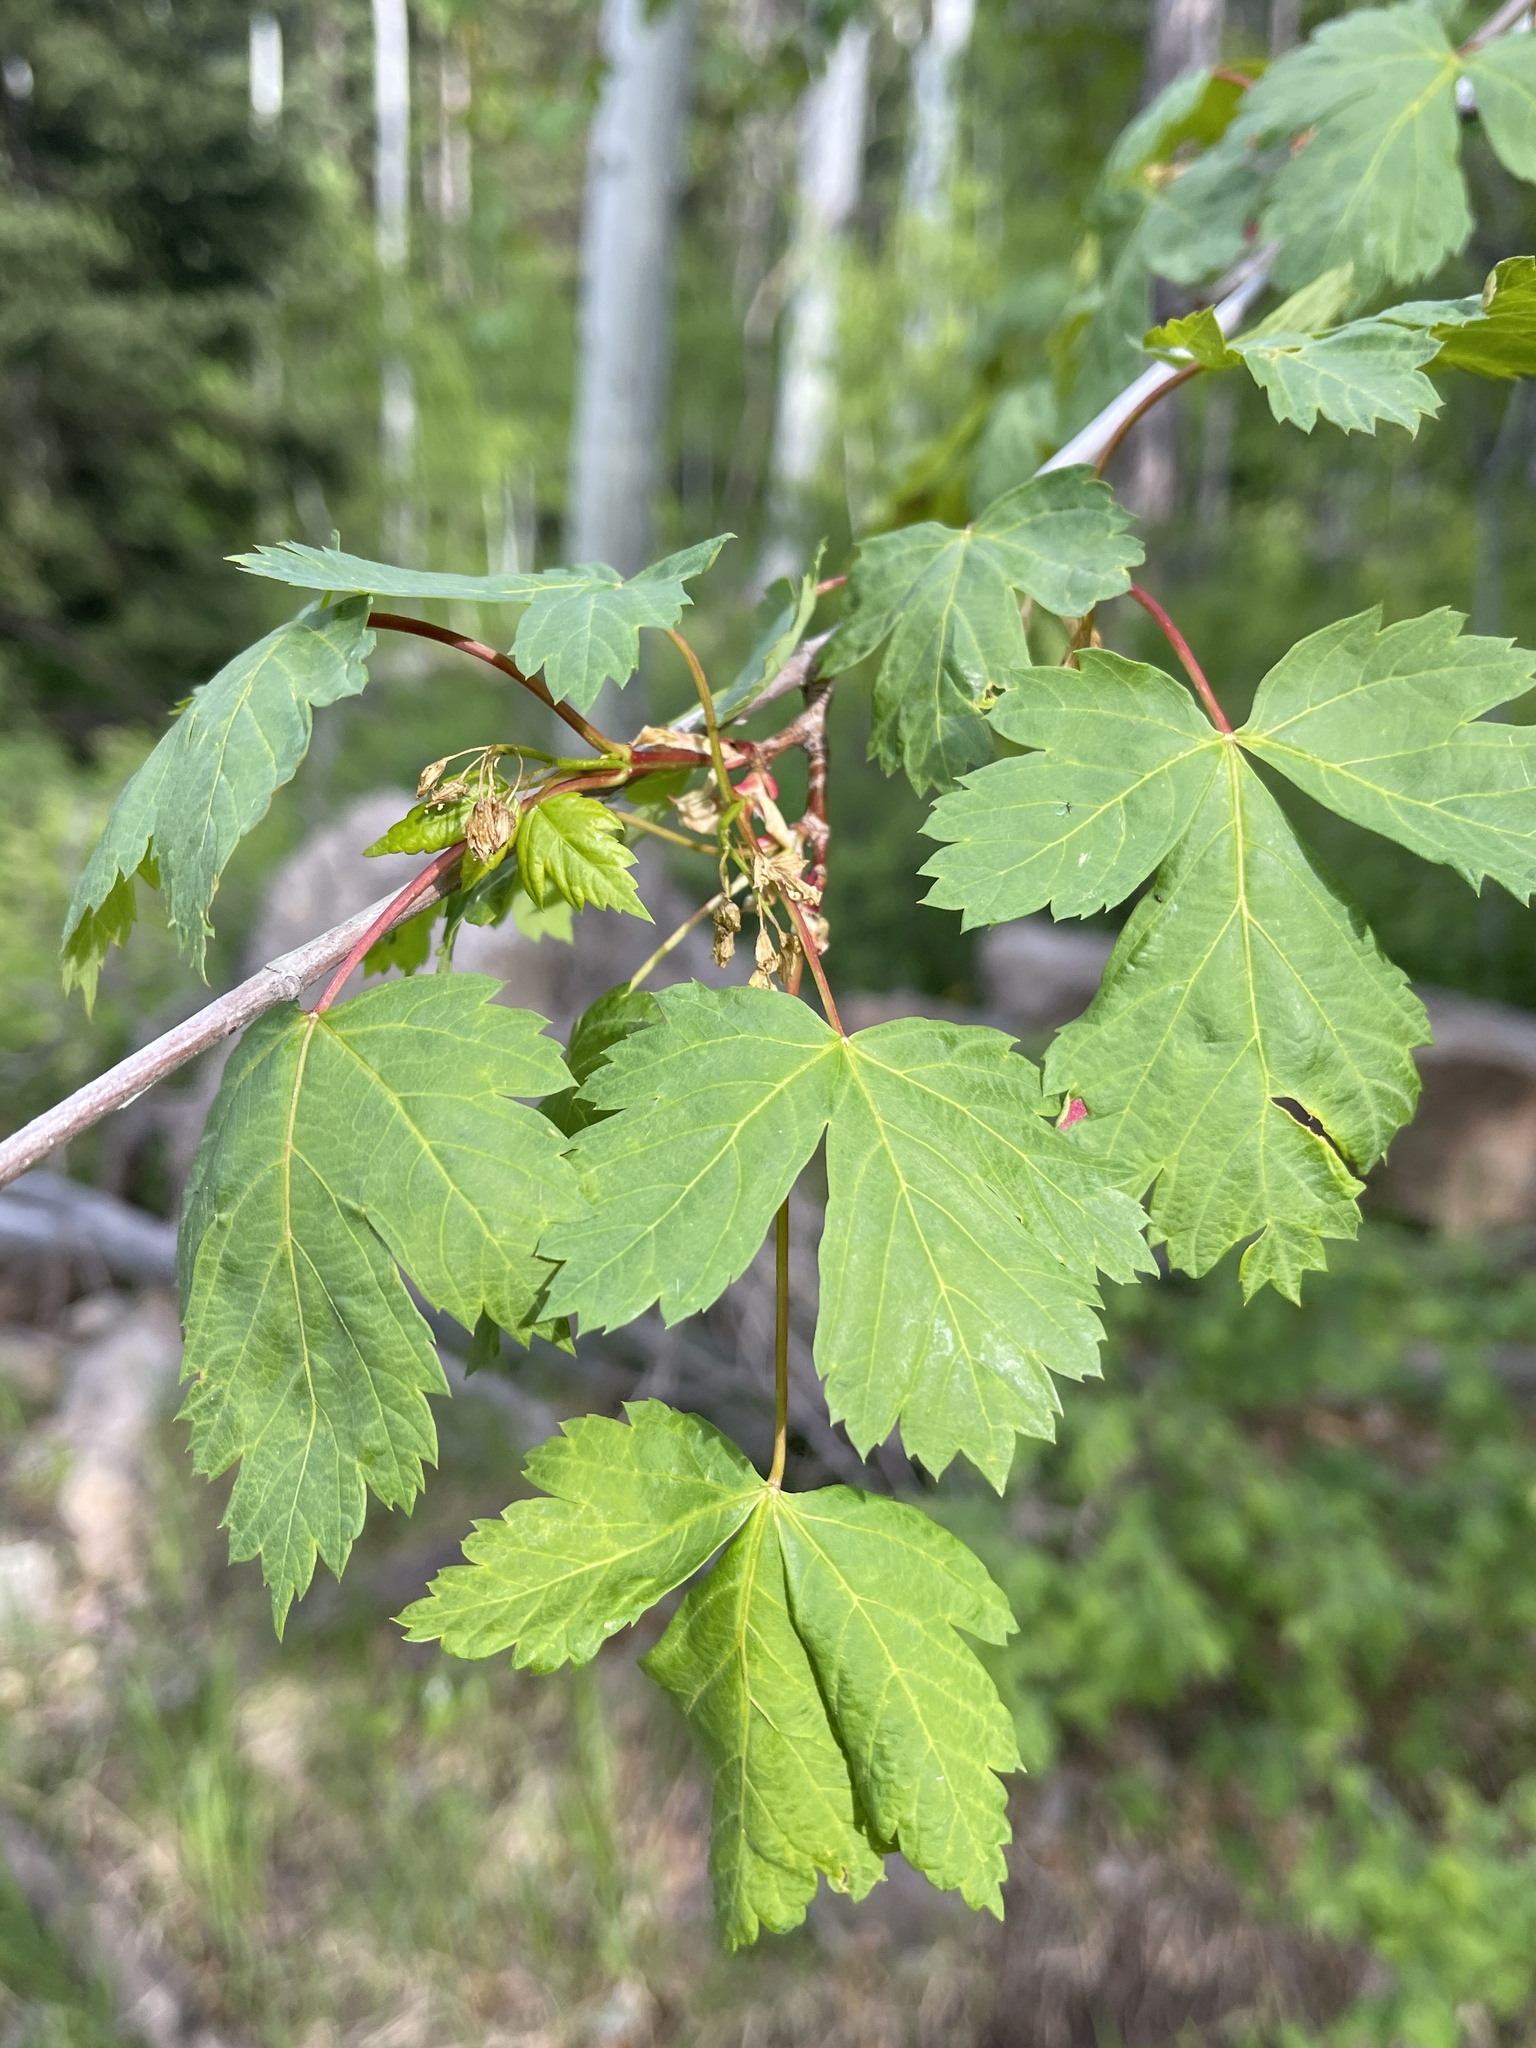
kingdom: Plantae
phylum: Tracheophyta
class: Magnoliopsida
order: Sapindales
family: Sapindaceae
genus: Acer
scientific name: Acer glabrum
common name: Rocky mountain maple
